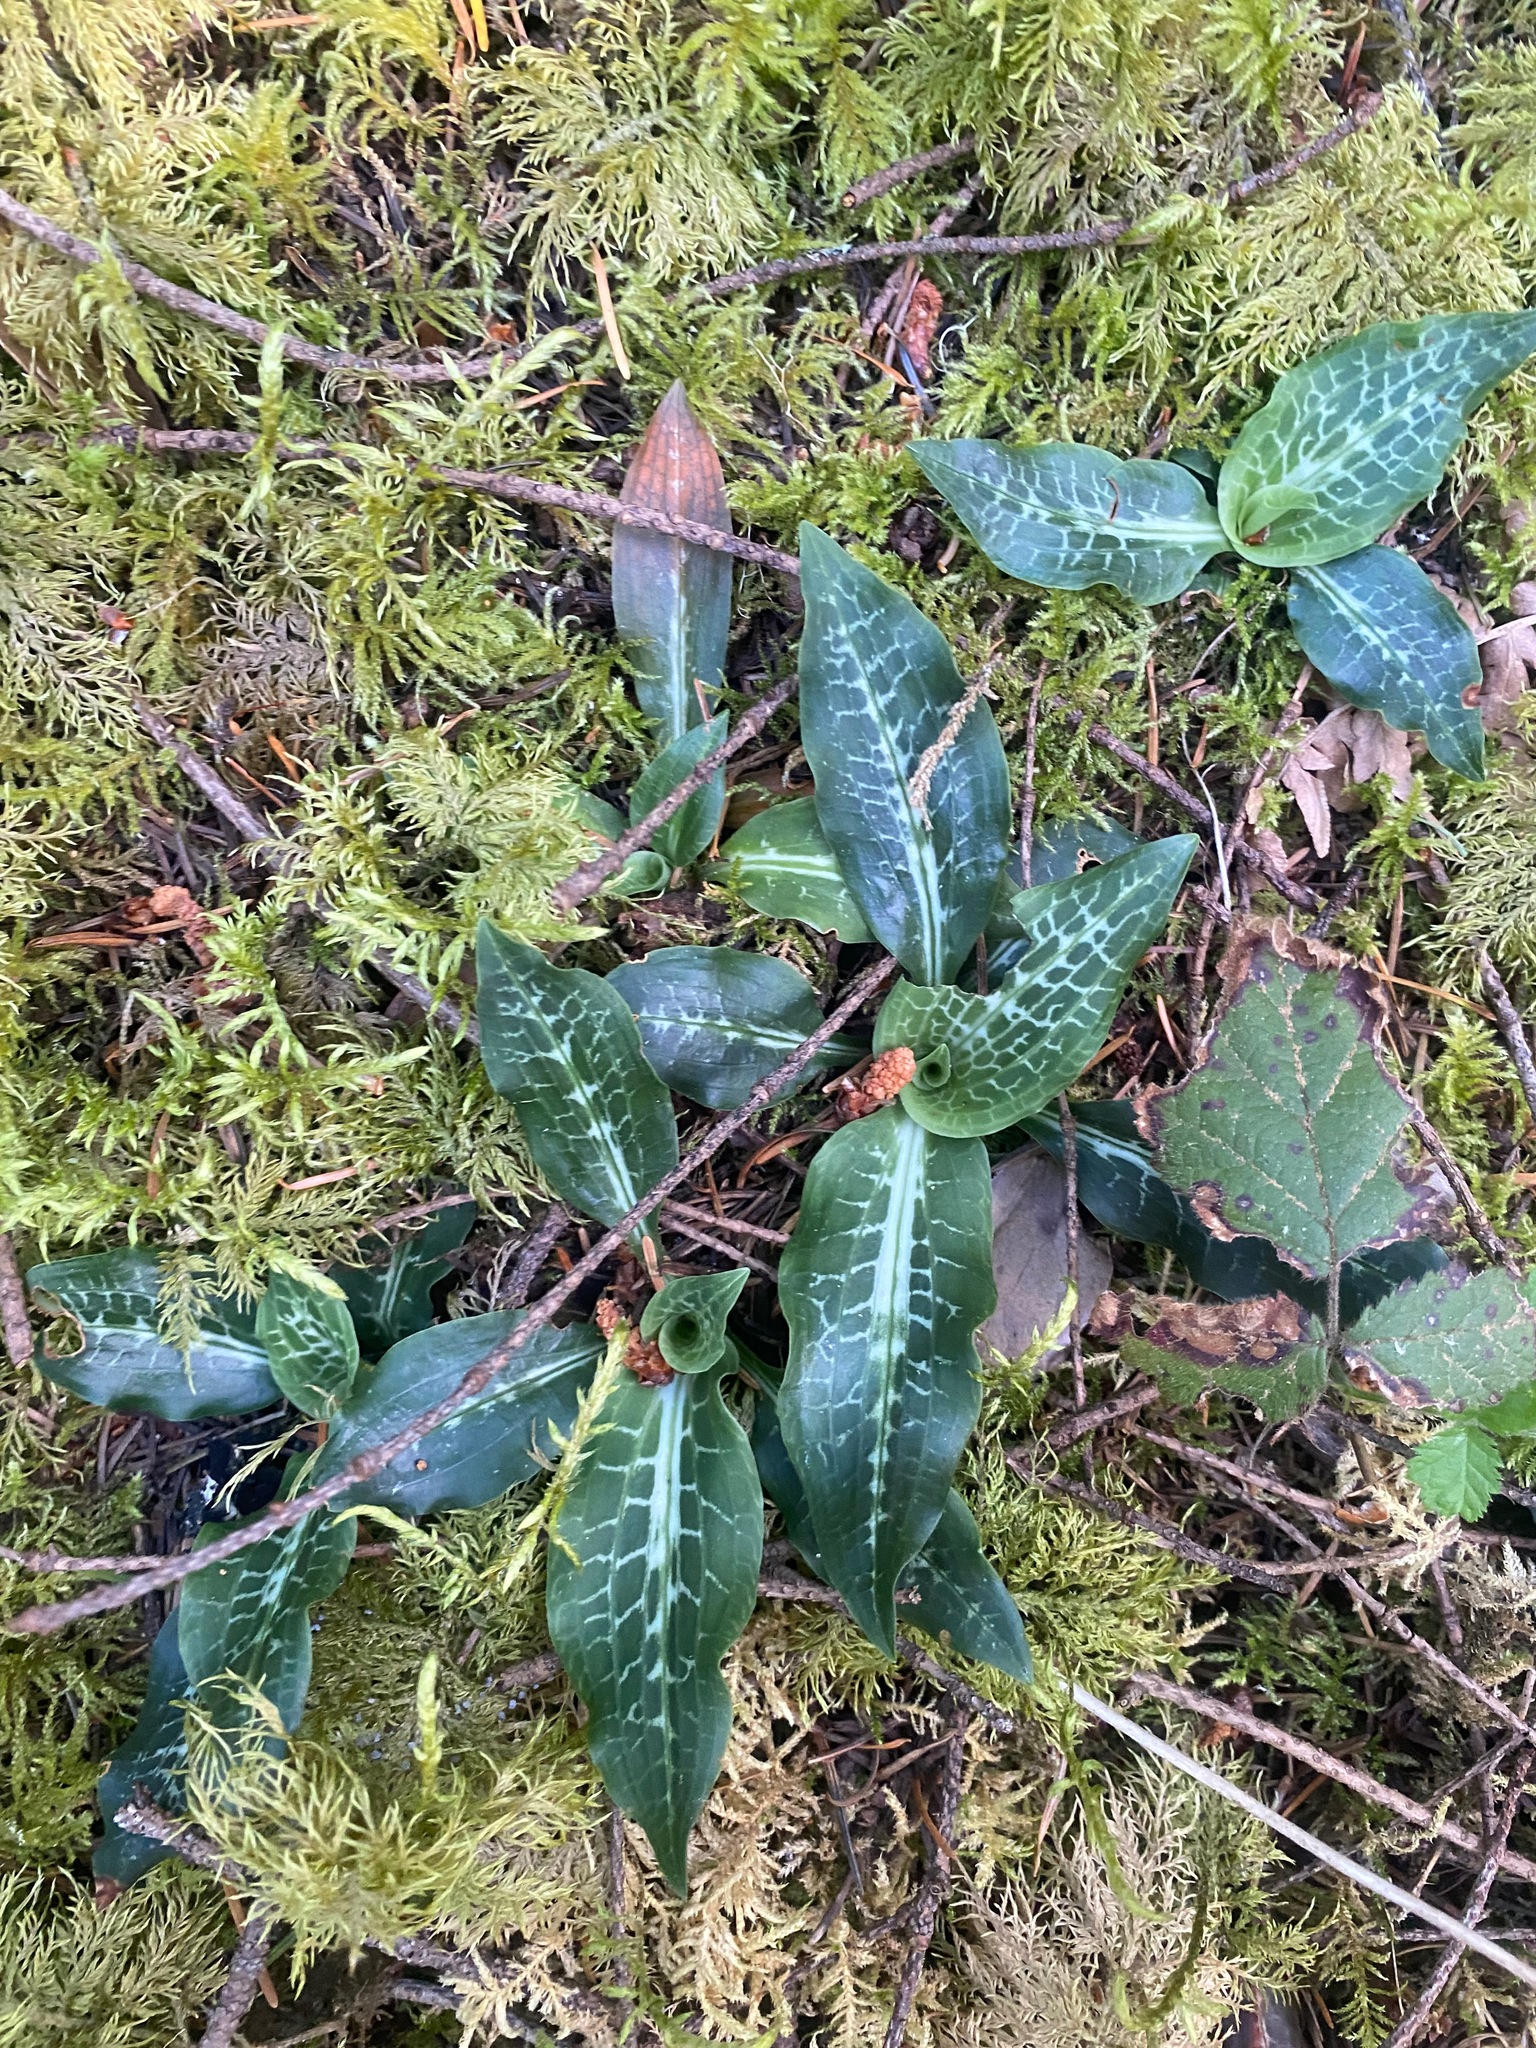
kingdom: Plantae
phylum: Tracheophyta
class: Liliopsida
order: Asparagales
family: Orchidaceae
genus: Goodyera
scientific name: Goodyera oblongifolia
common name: Giant rattlesnake-plantain
